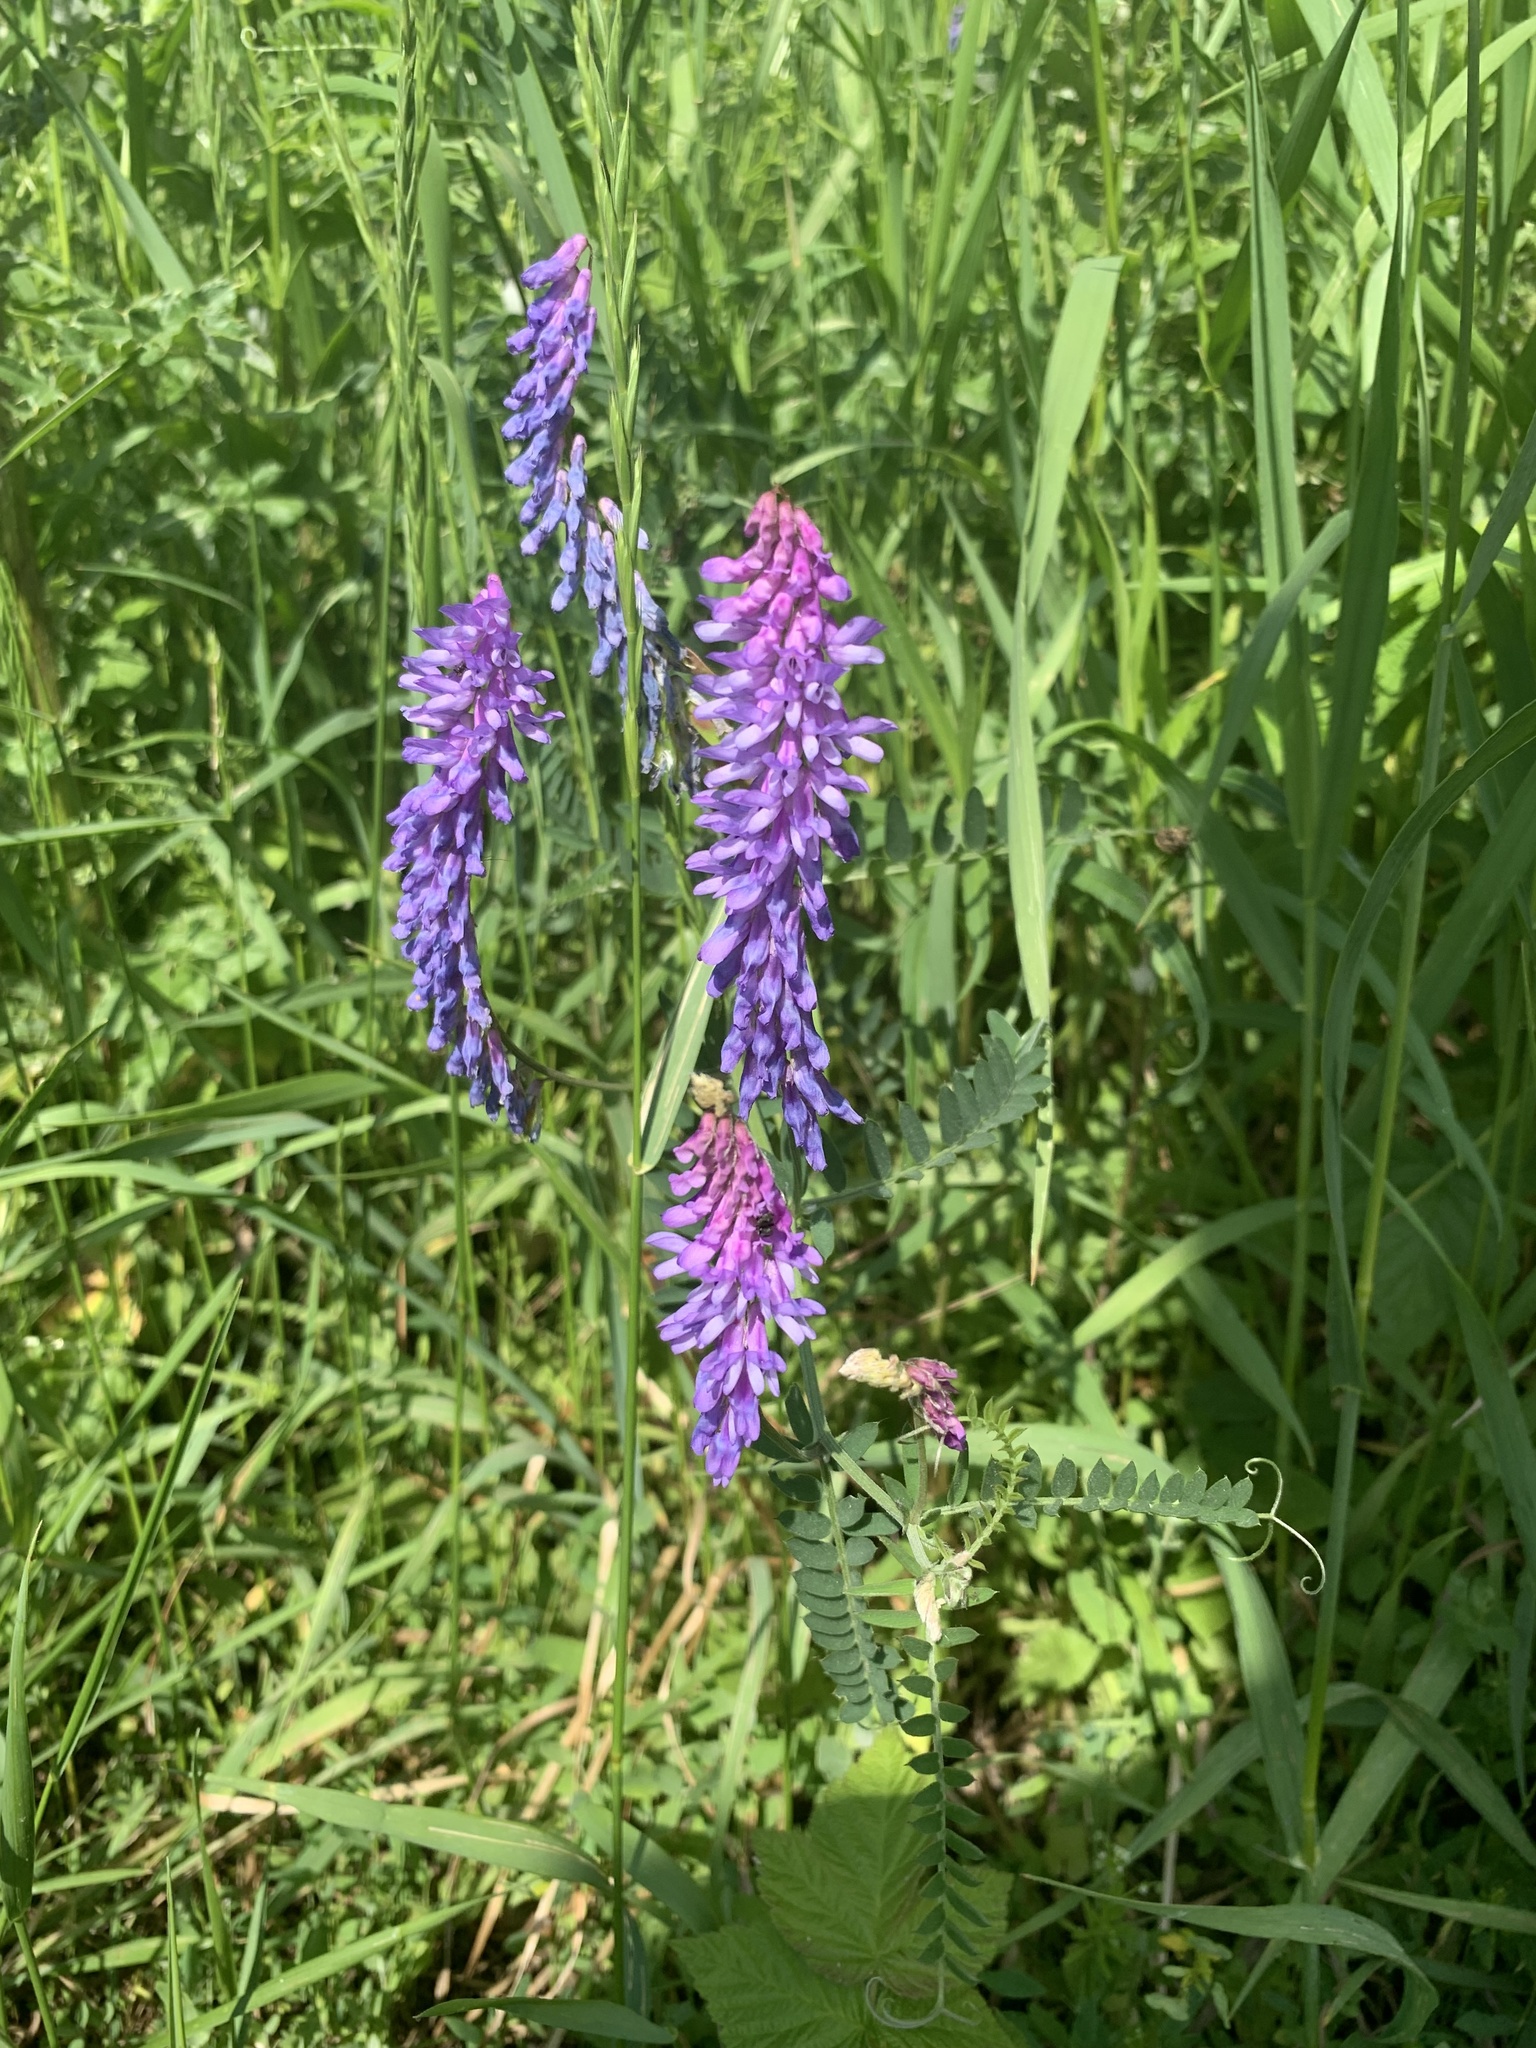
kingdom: Plantae
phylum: Tracheophyta
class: Magnoliopsida
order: Fabales
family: Fabaceae
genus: Vicia
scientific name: Vicia cracca
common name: Bird vetch
